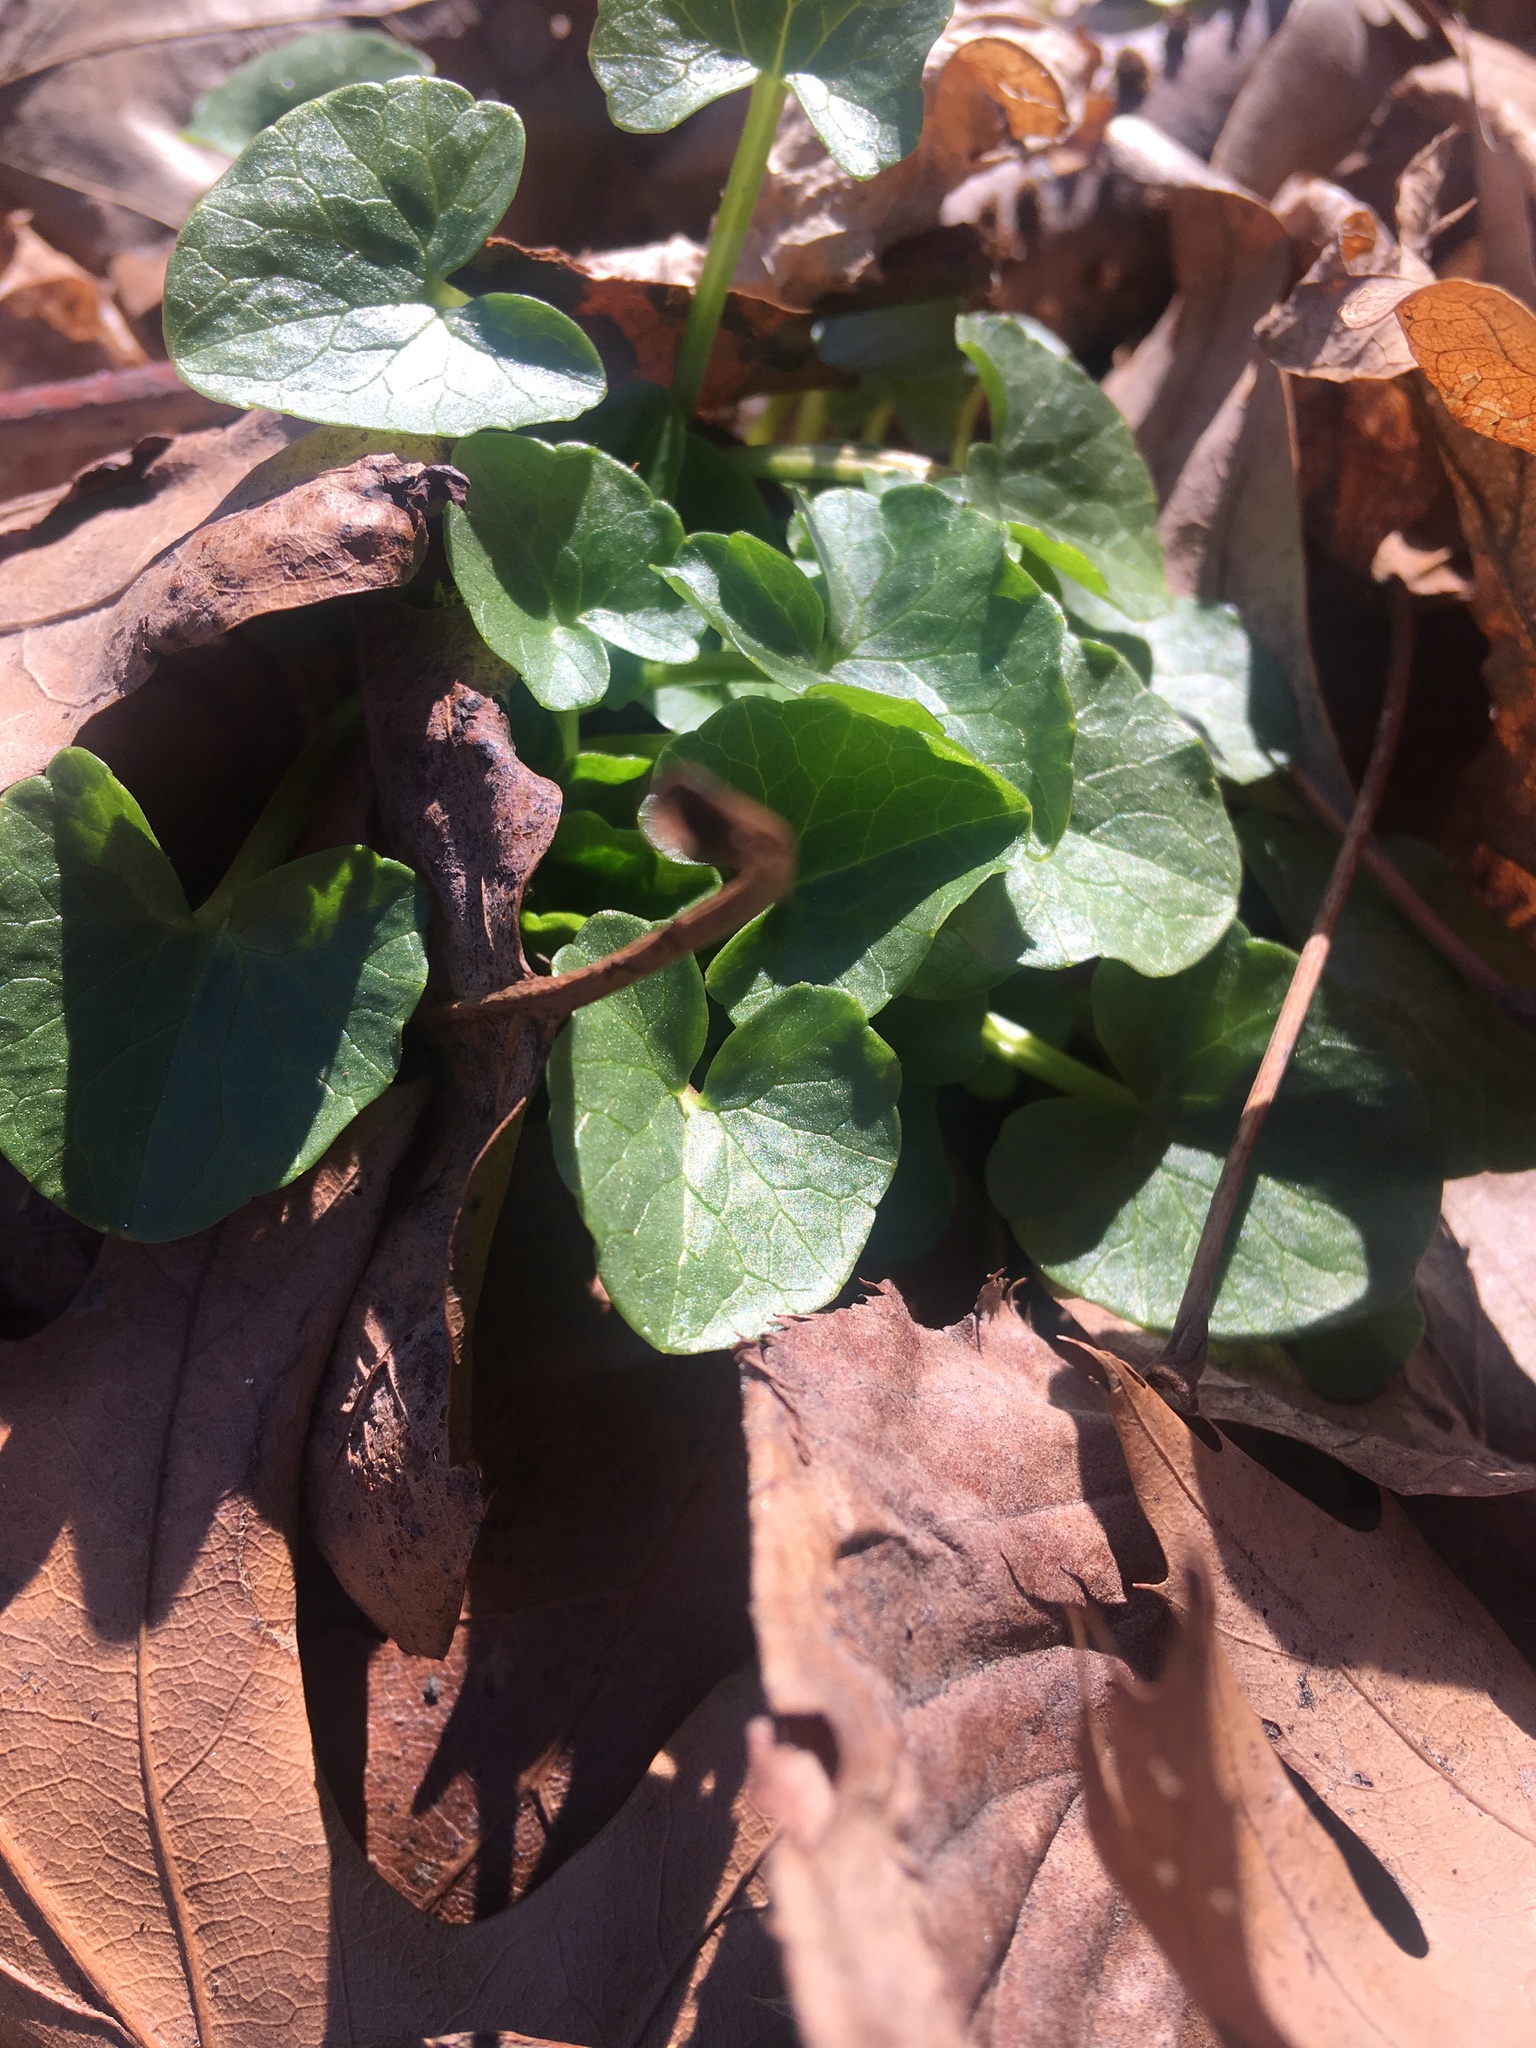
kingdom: Plantae
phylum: Tracheophyta
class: Magnoliopsida
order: Ranunculales
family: Ranunculaceae
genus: Ficaria
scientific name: Ficaria verna
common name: Lesser celandine
